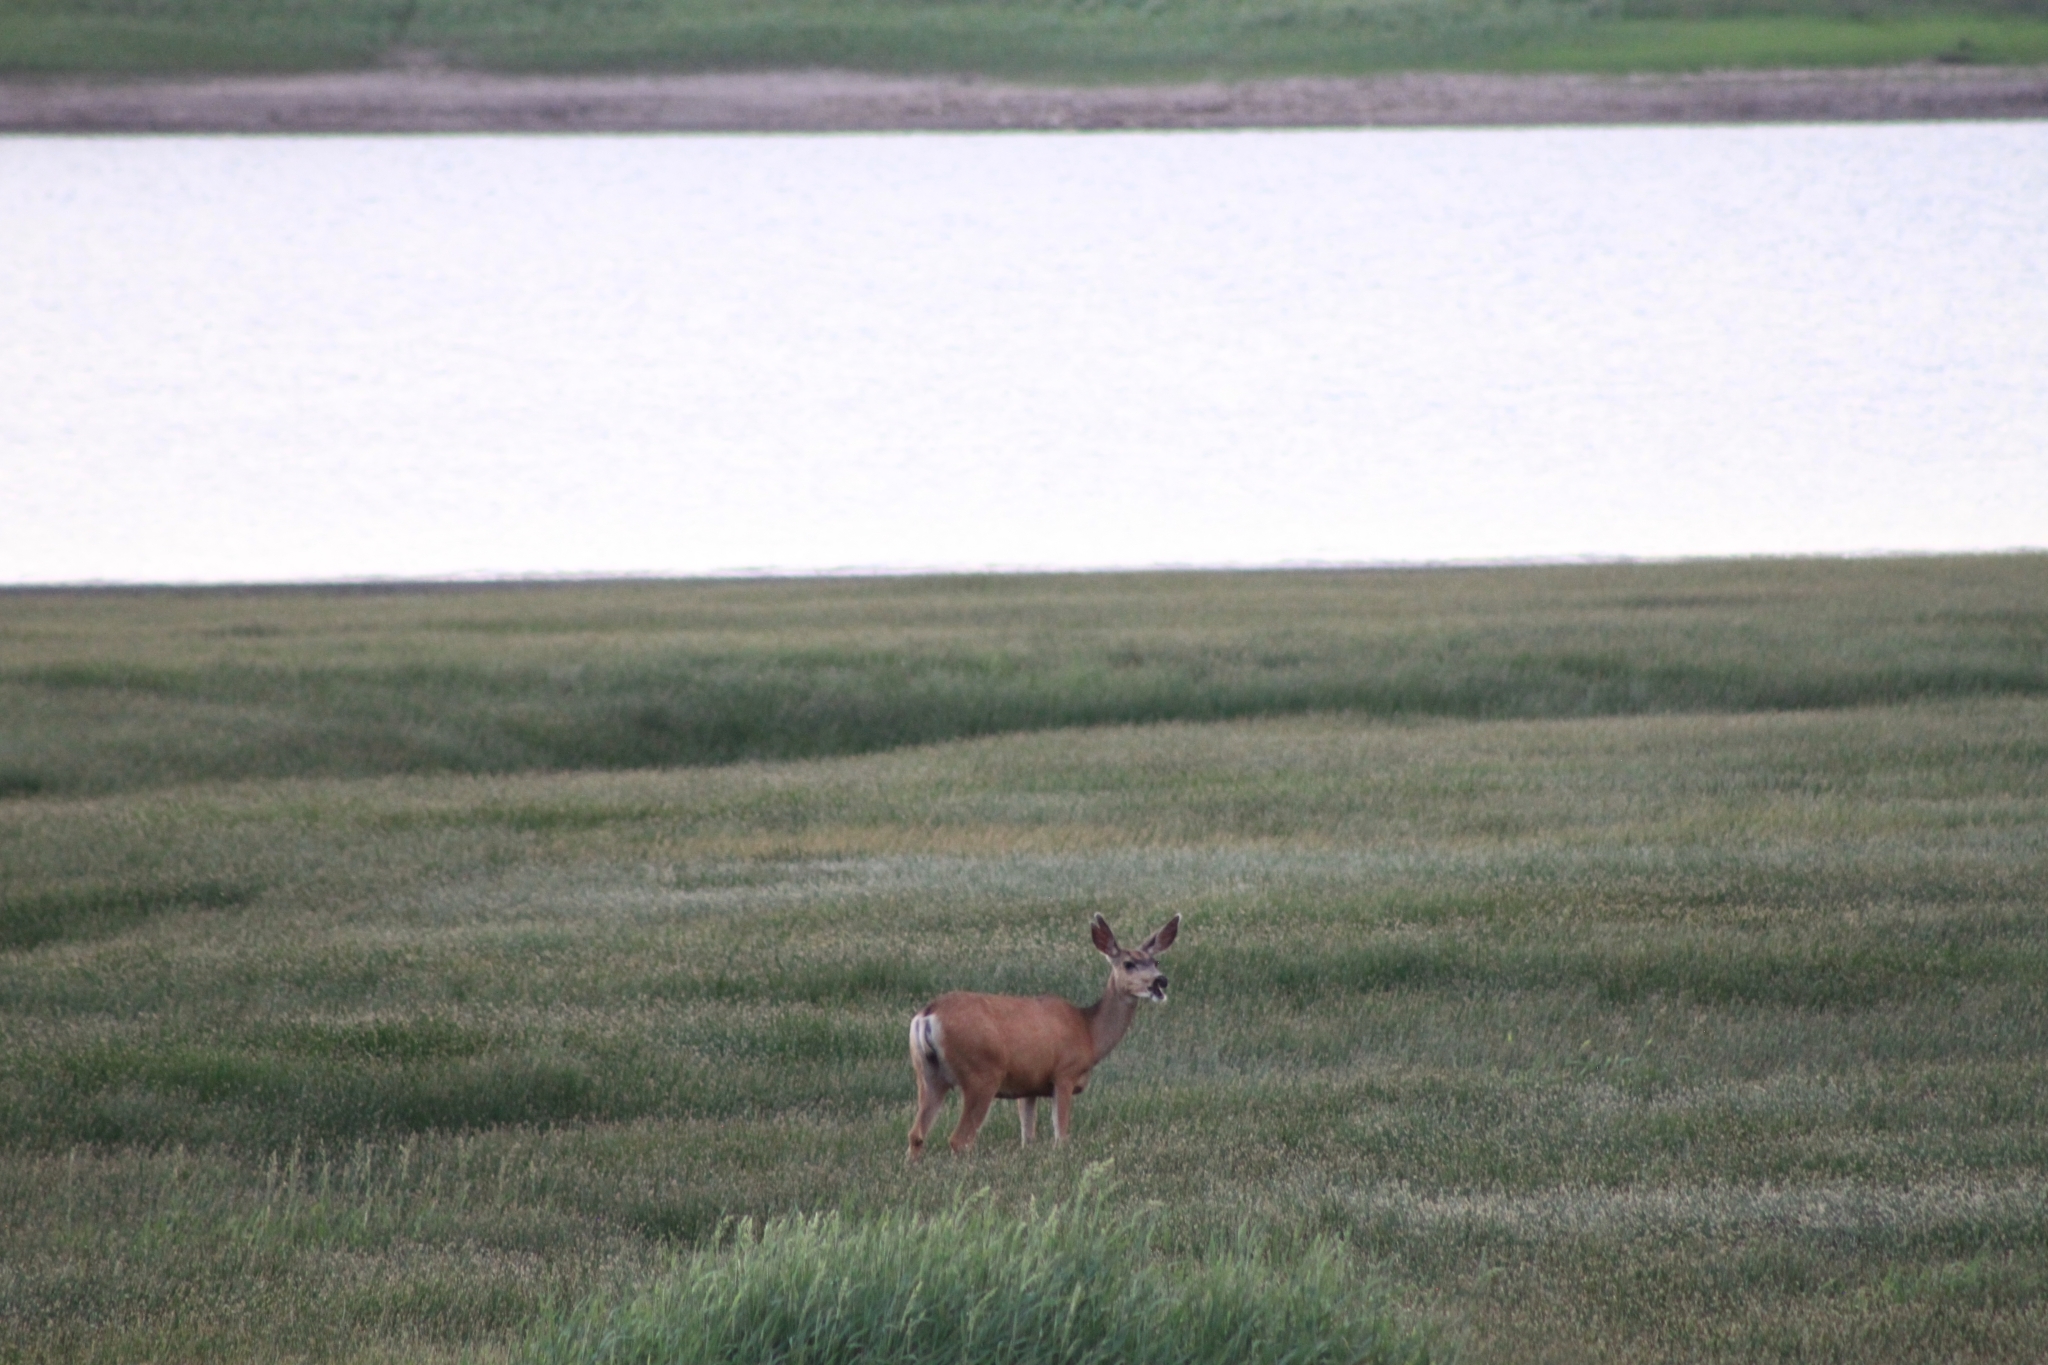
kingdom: Animalia
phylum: Chordata
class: Mammalia
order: Artiodactyla
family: Cervidae
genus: Odocoileus
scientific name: Odocoileus hemionus
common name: Mule deer
